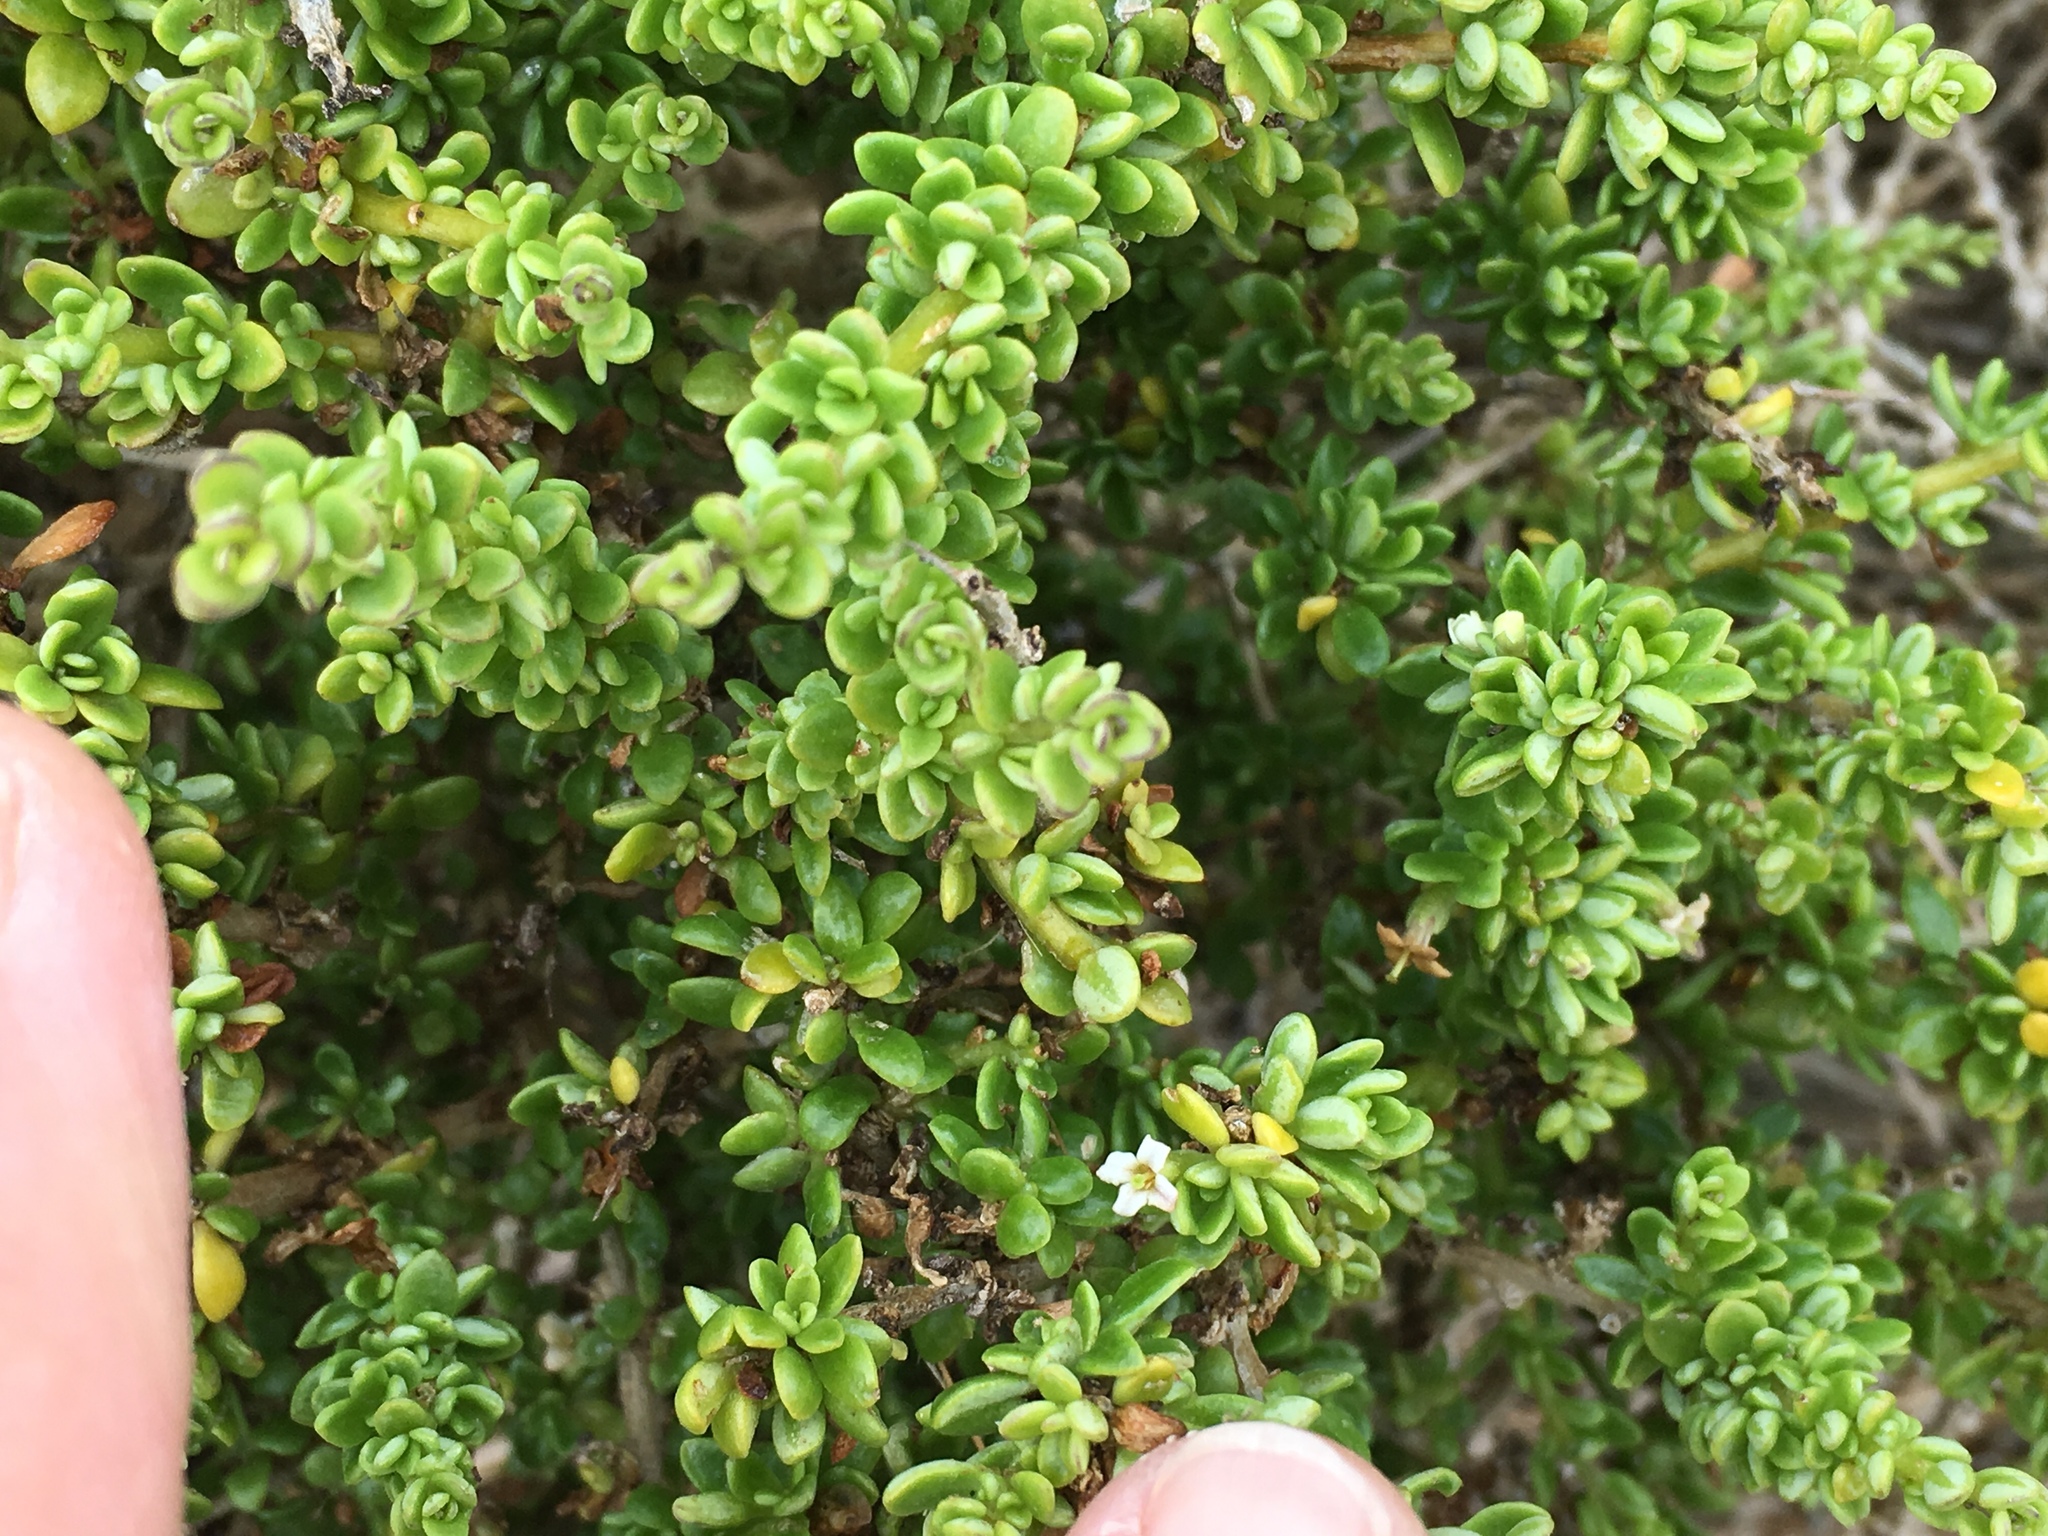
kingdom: Plantae
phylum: Tracheophyta
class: Magnoliopsida
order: Solanales
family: Solanaceae
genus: Lycium
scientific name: Lycium tetrandrum
